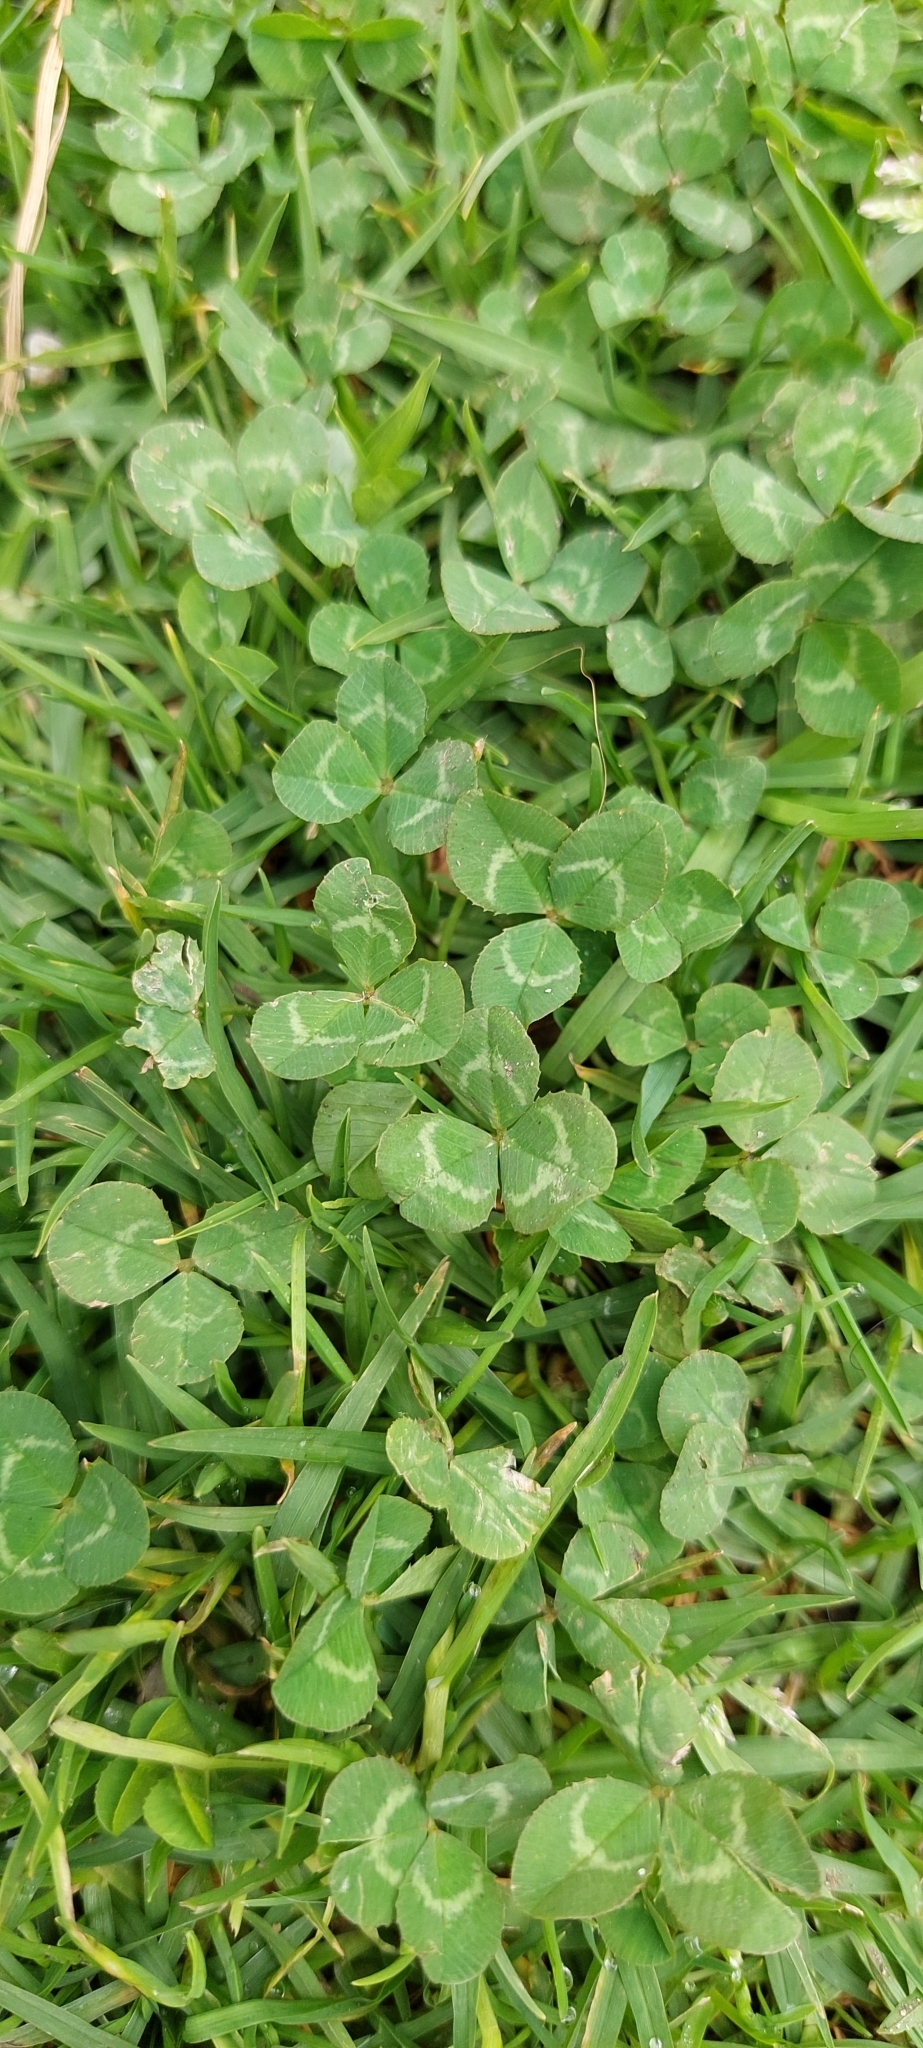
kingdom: Plantae
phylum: Tracheophyta
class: Magnoliopsida
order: Fabales
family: Fabaceae
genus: Trifolium
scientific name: Trifolium repens
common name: White clover
